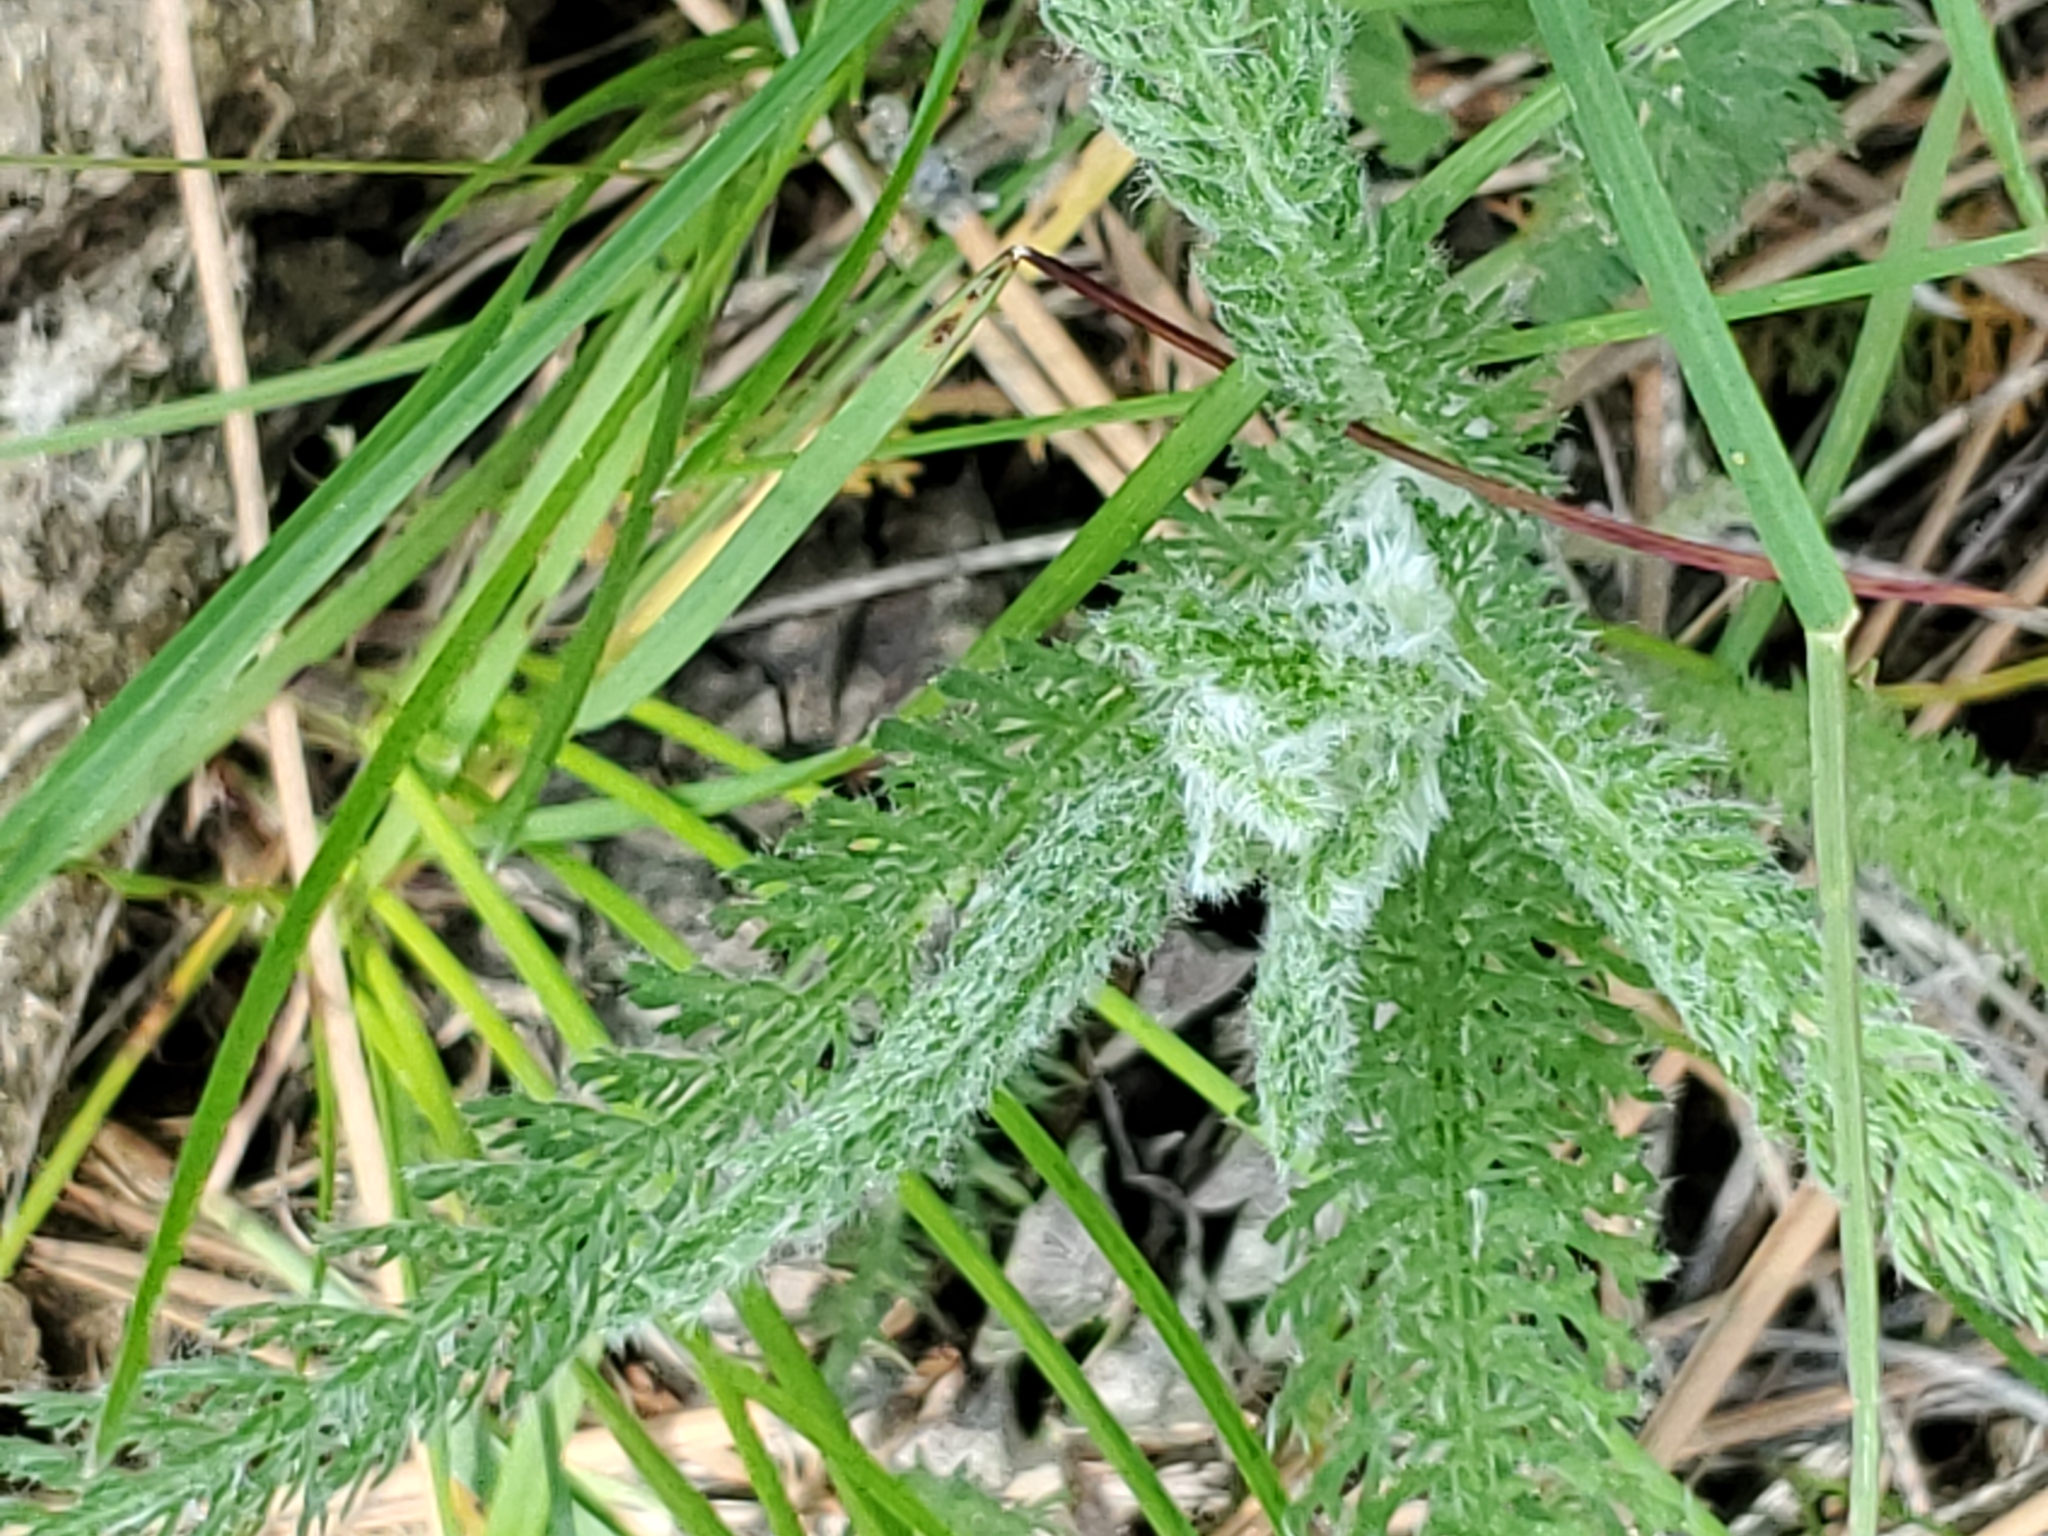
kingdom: Plantae
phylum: Tracheophyta
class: Magnoliopsida
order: Asterales
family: Asteraceae
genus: Achillea
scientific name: Achillea millefolium
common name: Yarrow
